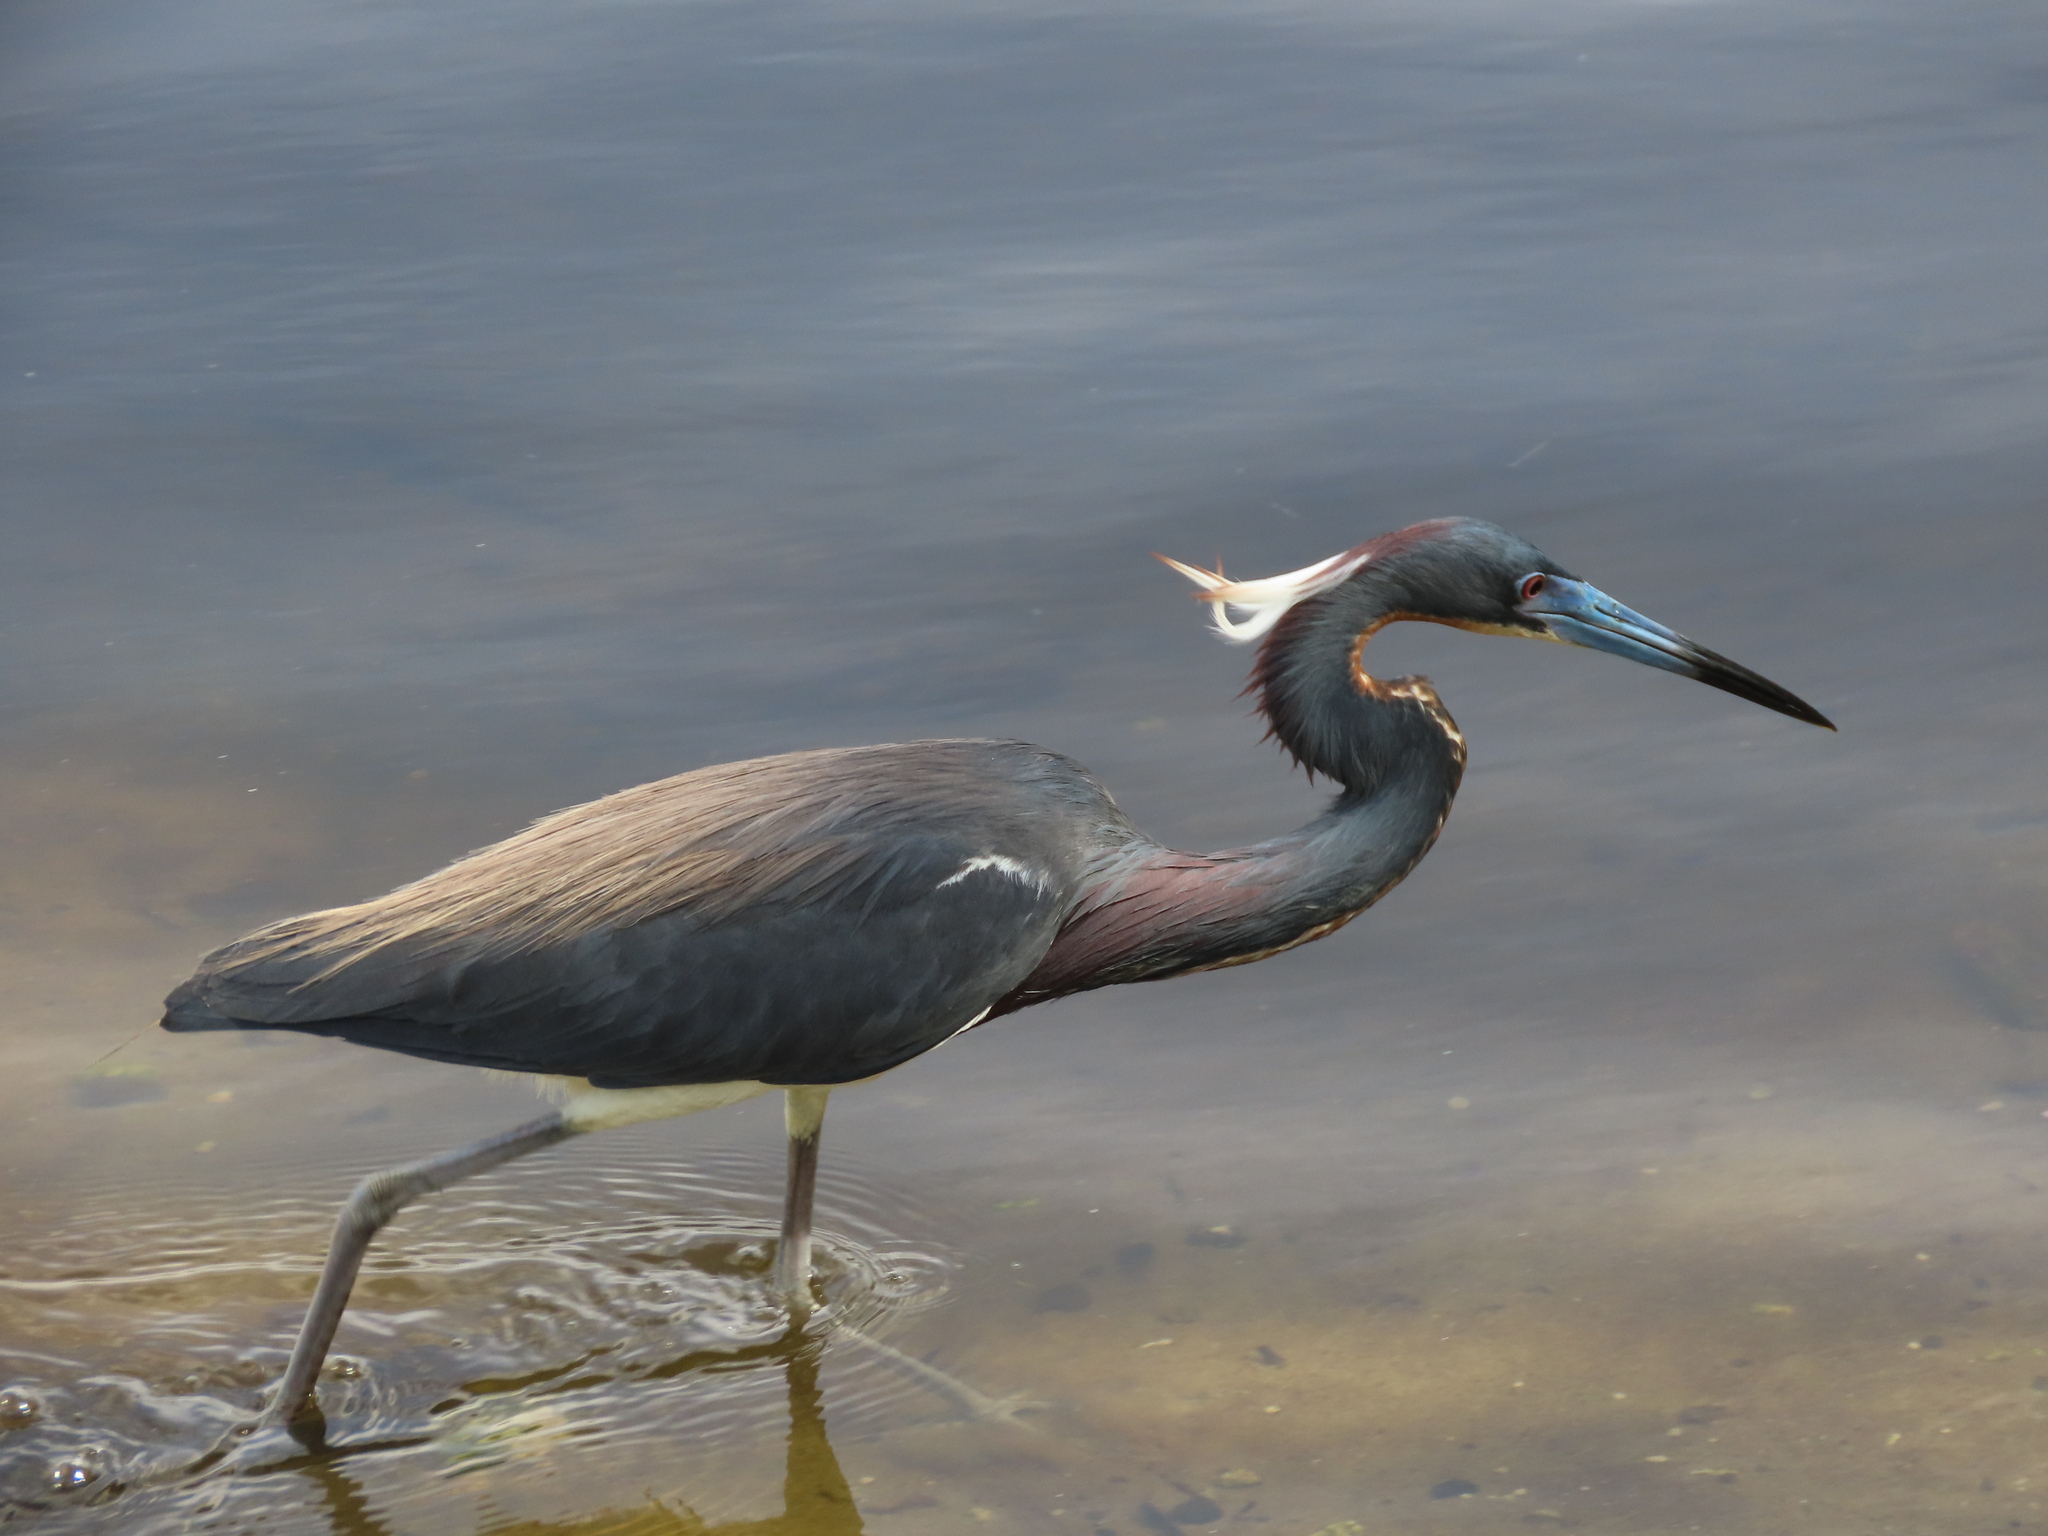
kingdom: Animalia
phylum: Chordata
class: Aves
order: Pelecaniformes
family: Ardeidae
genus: Egretta
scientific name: Egretta tricolor
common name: Tricolored heron
